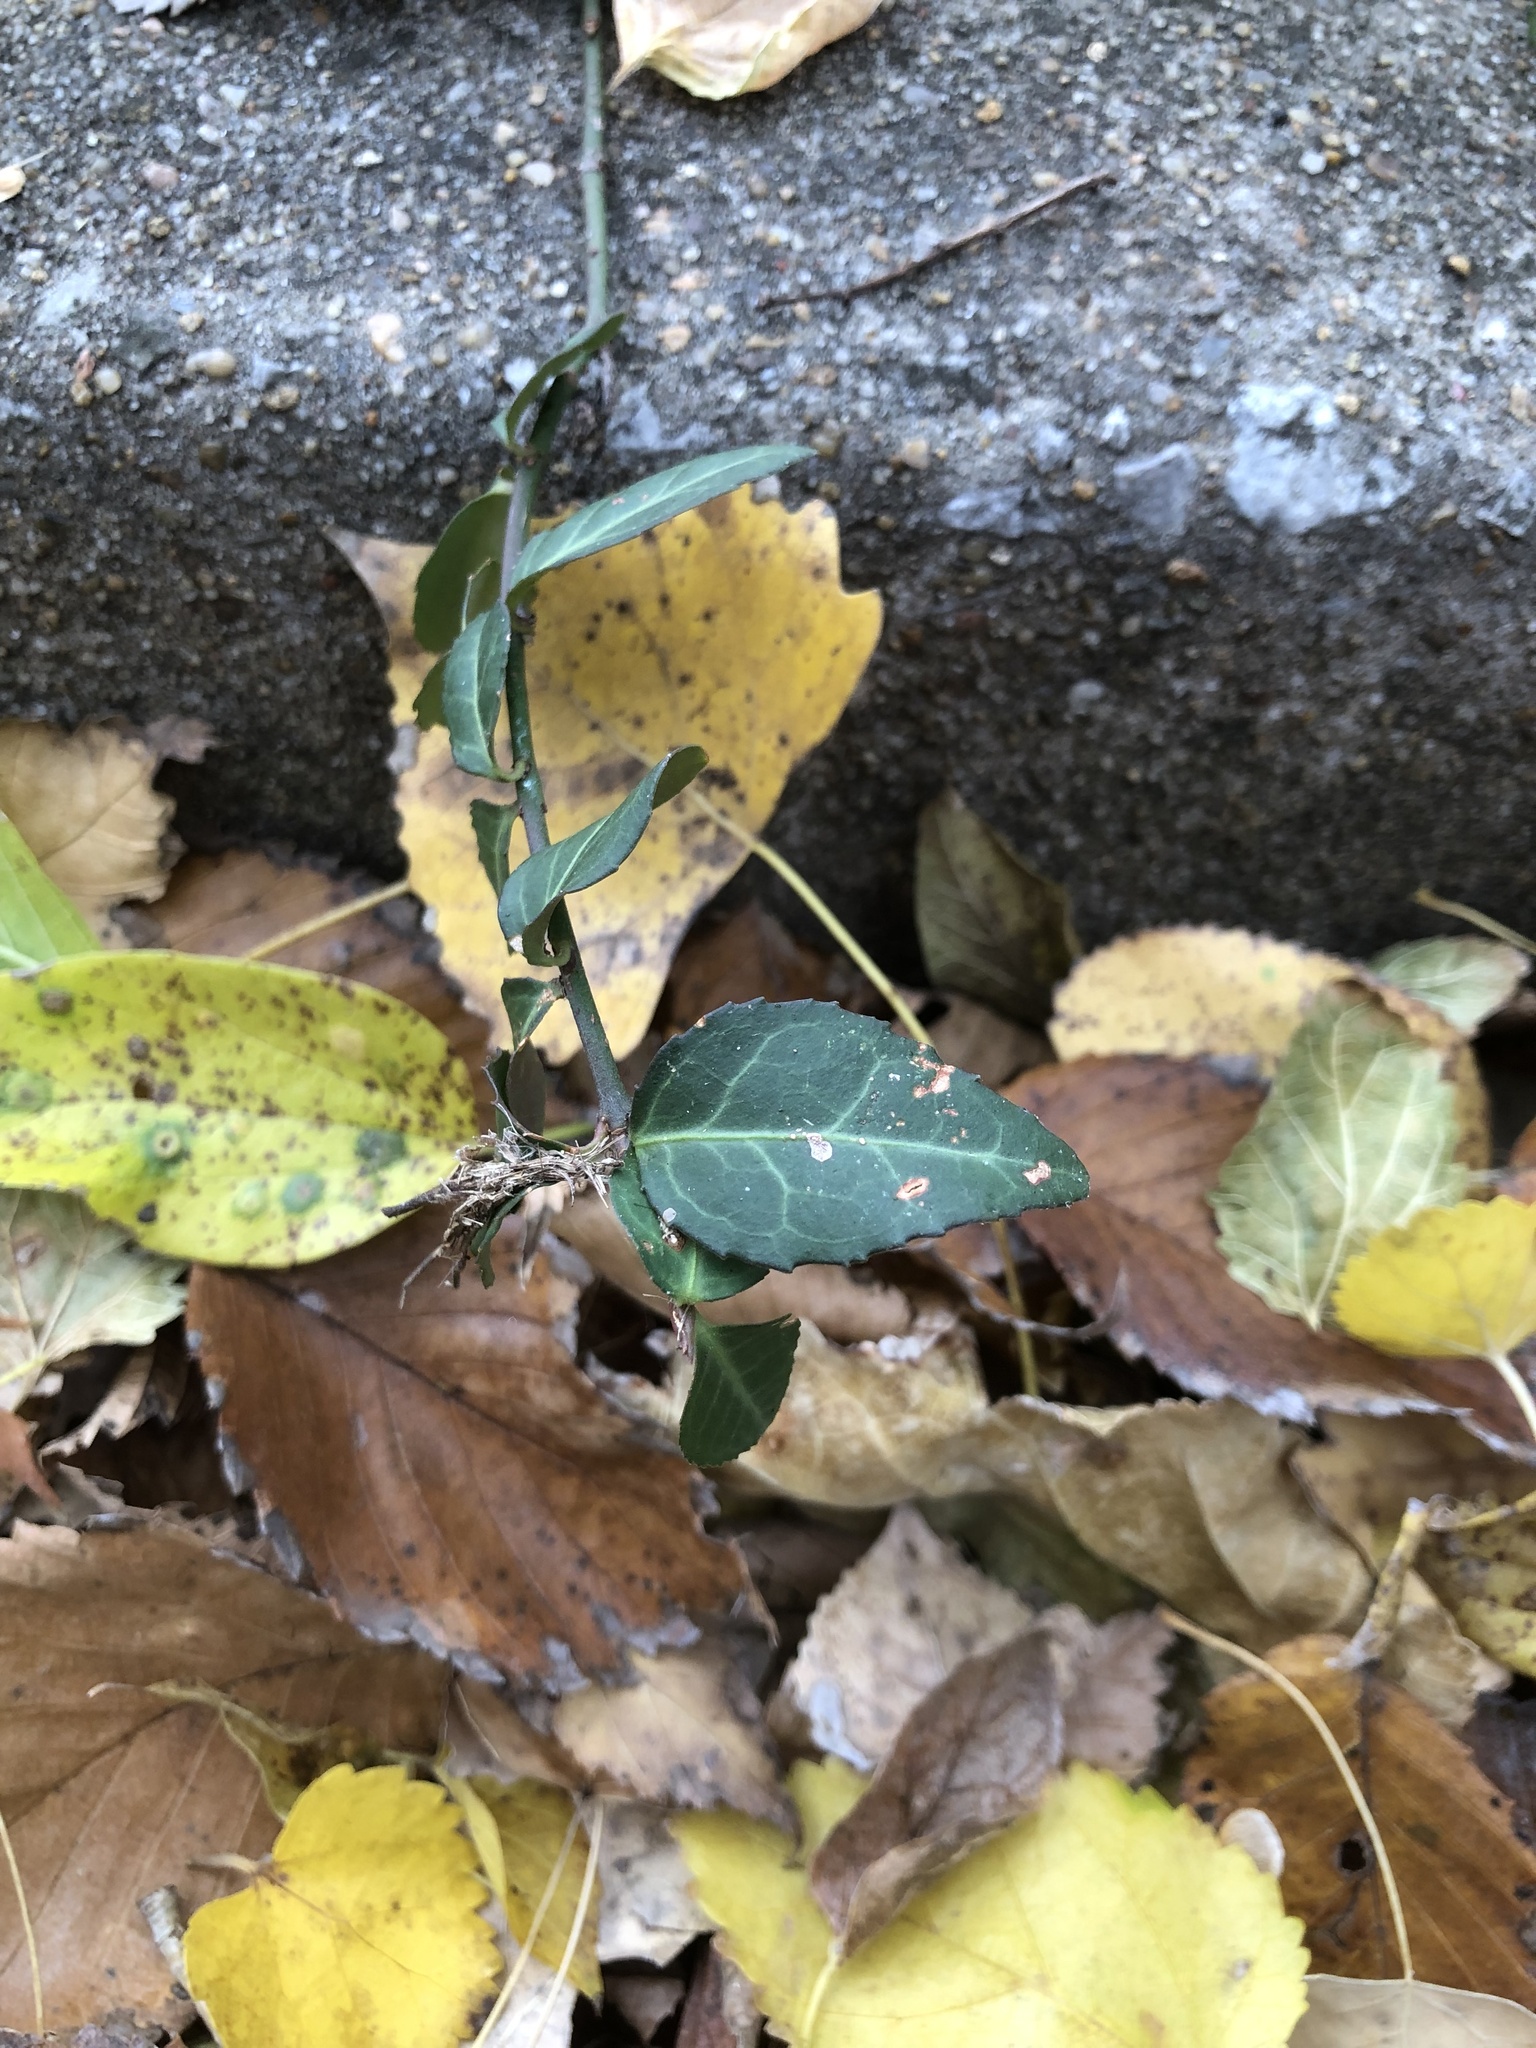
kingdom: Plantae
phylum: Tracheophyta
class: Magnoliopsida
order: Celastrales
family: Celastraceae
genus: Euonymus
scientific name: Euonymus fortunei
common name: Climbing euonymus
